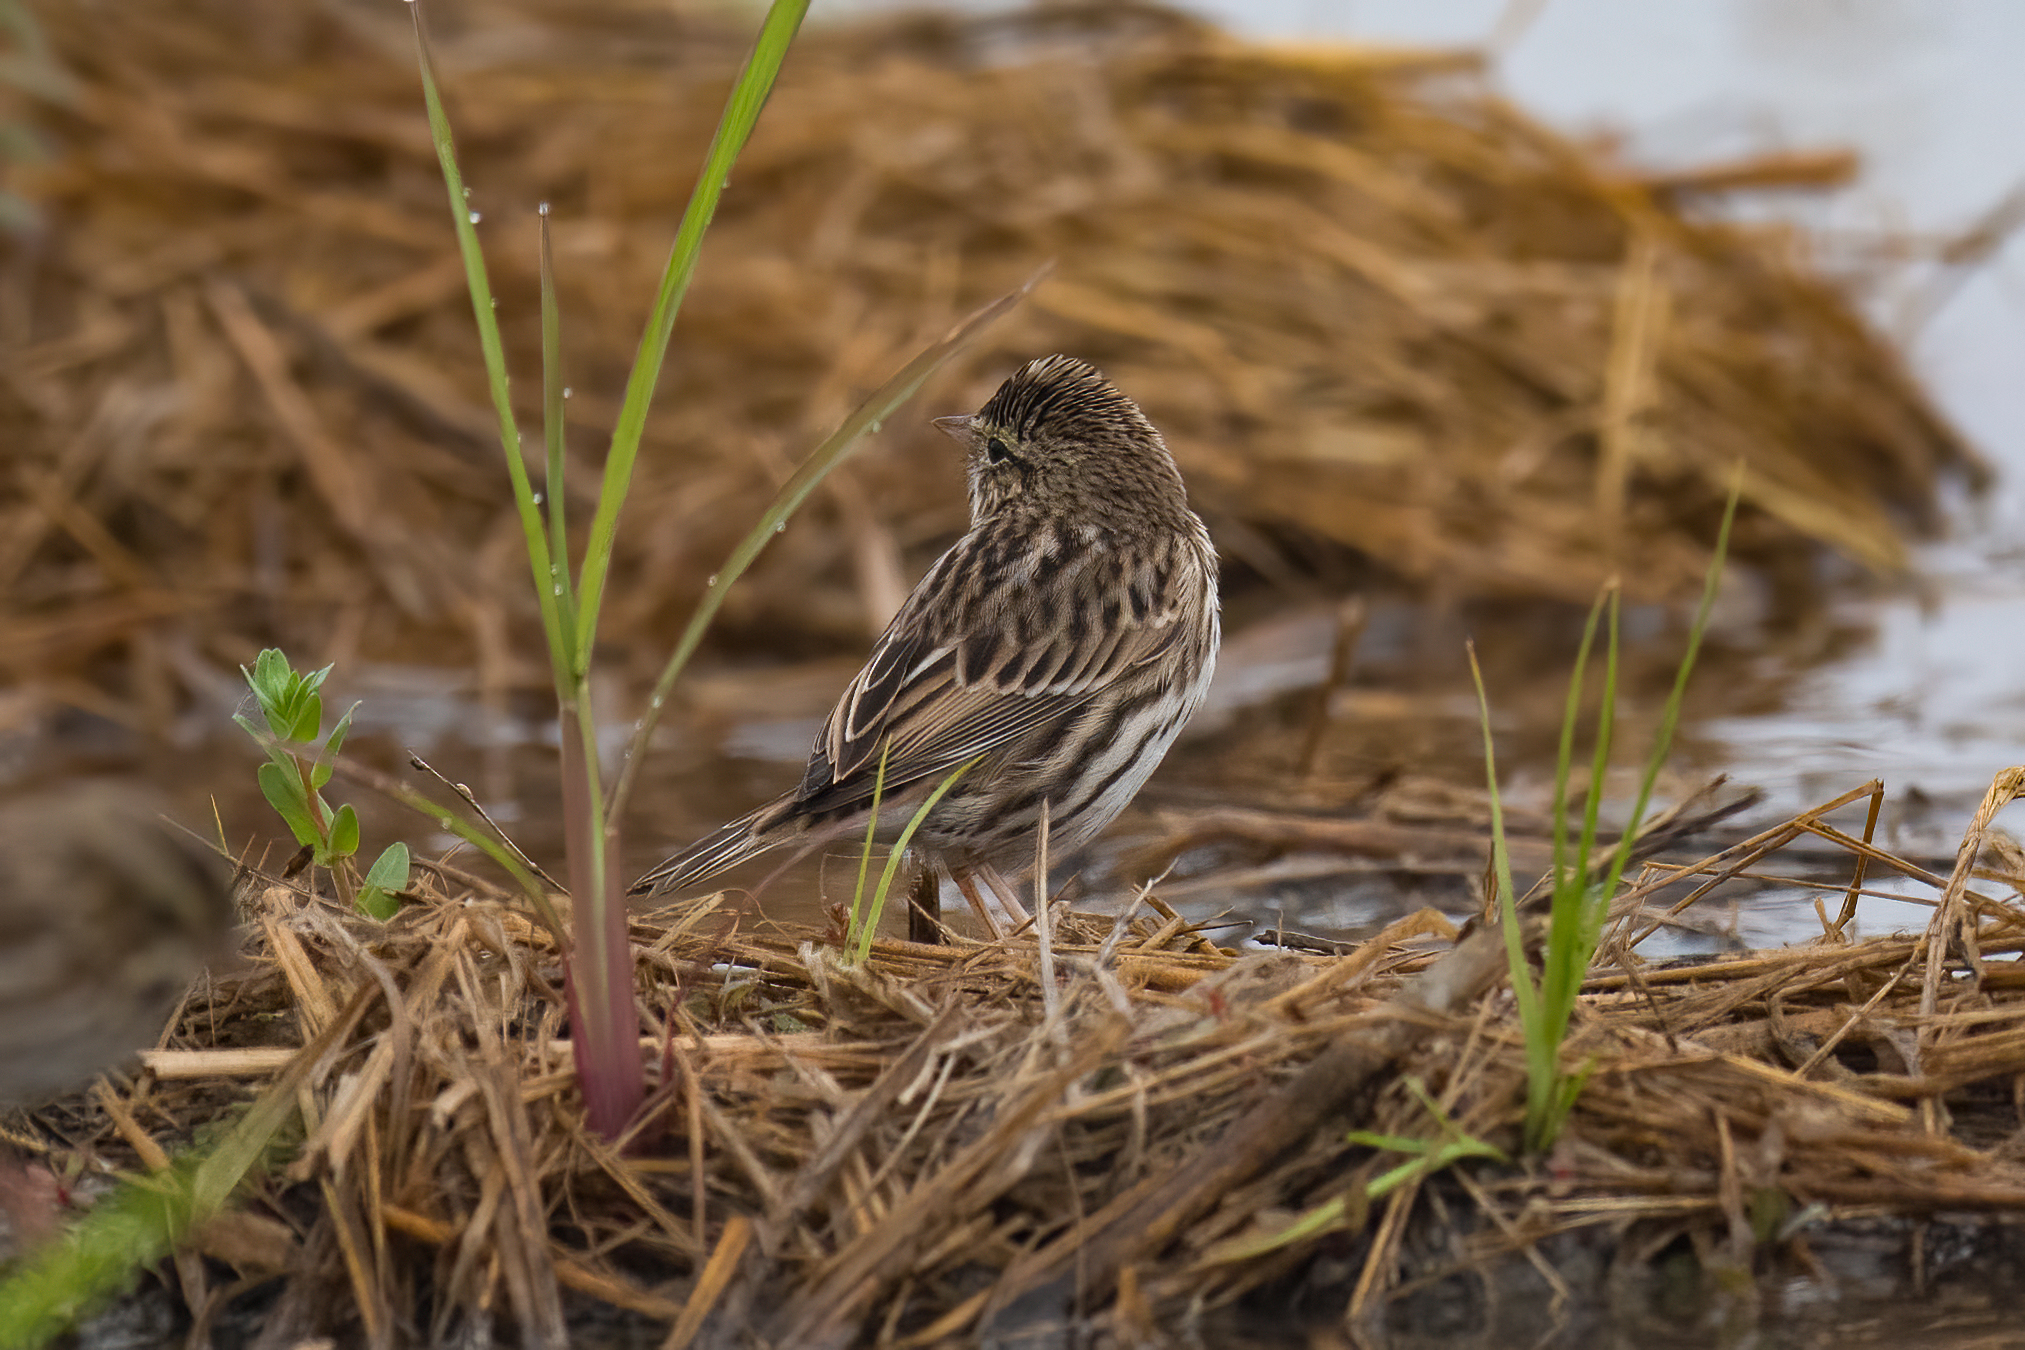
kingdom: Animalia
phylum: Chordata
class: Aves
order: Passeriformes
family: Passerellidae
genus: Passerculus
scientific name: Passerculus sandwichensis
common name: Savannah sparrow
